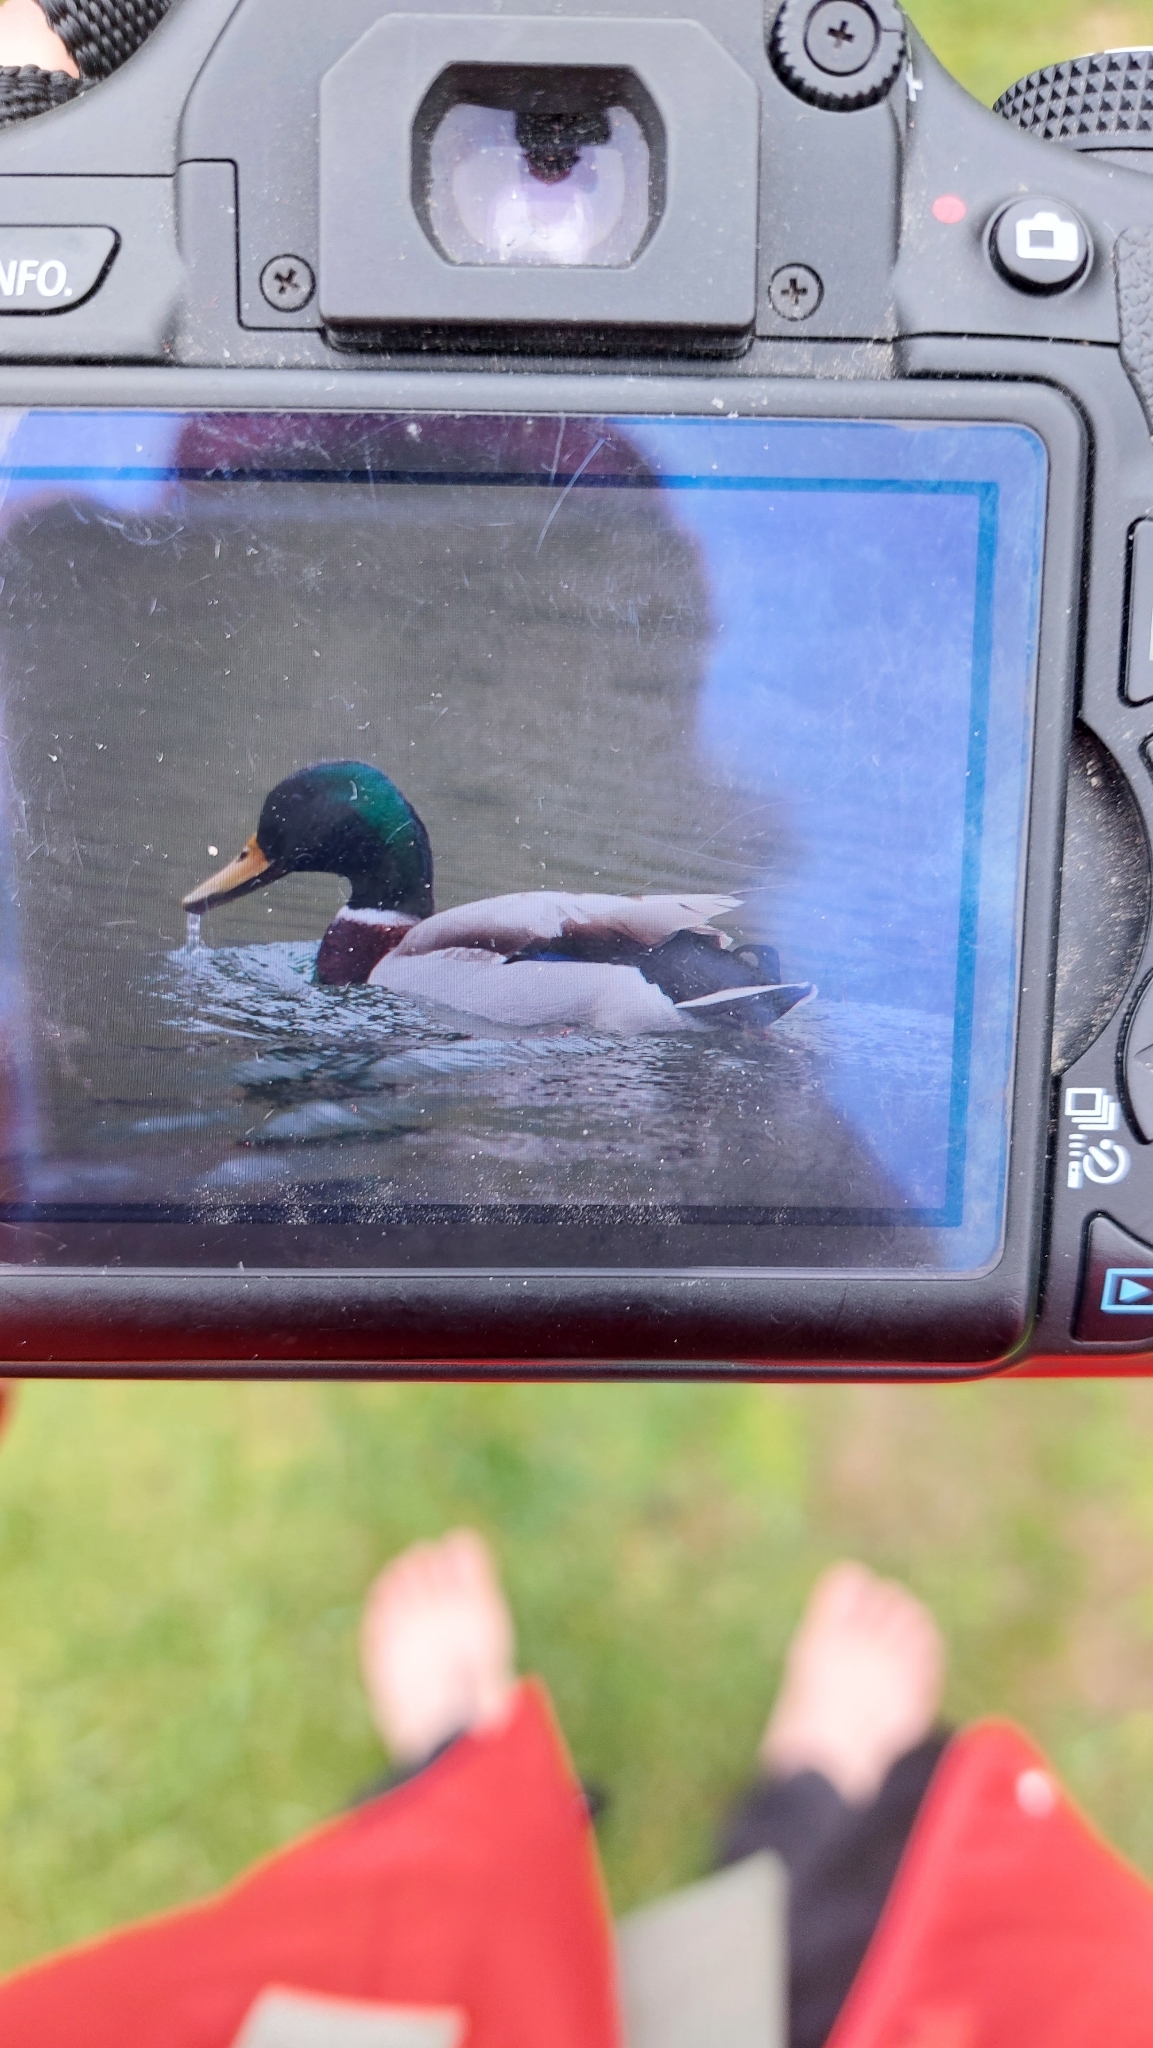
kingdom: Animalia
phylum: Chordata
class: Aves
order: Anseriformes
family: Anatidae
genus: Anas
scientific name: Anas platyrhynchos
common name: Mallard
